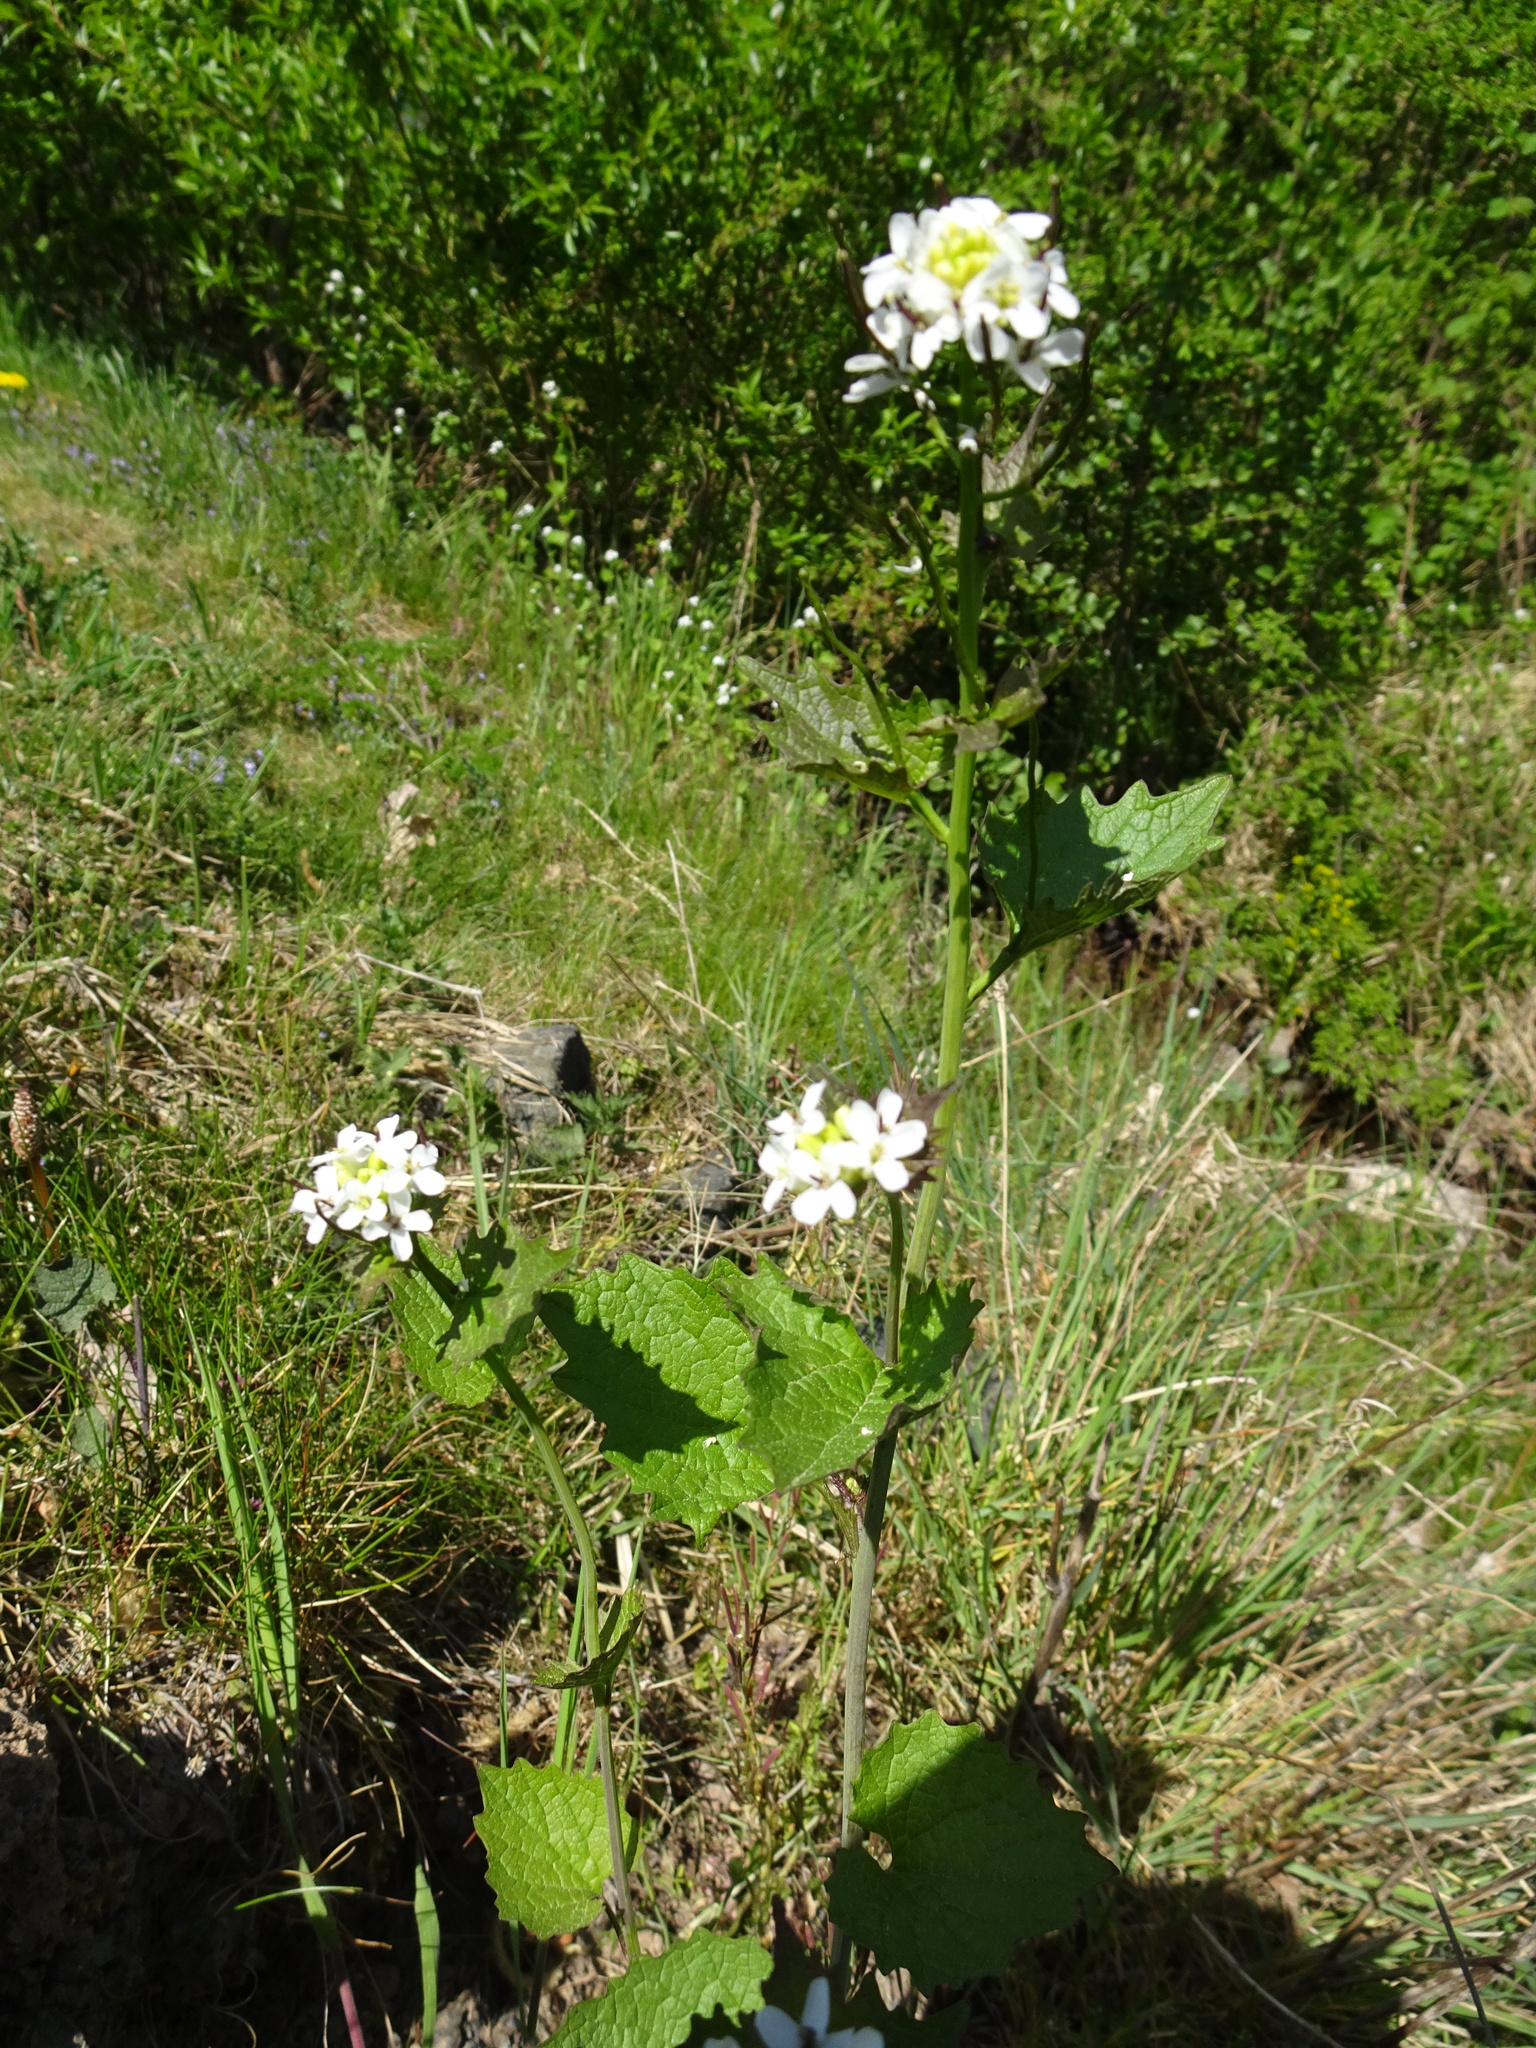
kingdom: Plantae
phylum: Tracheophyta
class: Magnoliopsida
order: Brassicales
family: Brassicaceae
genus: Alliaria
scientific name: Alliaria petiolata
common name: Garlic mustard
